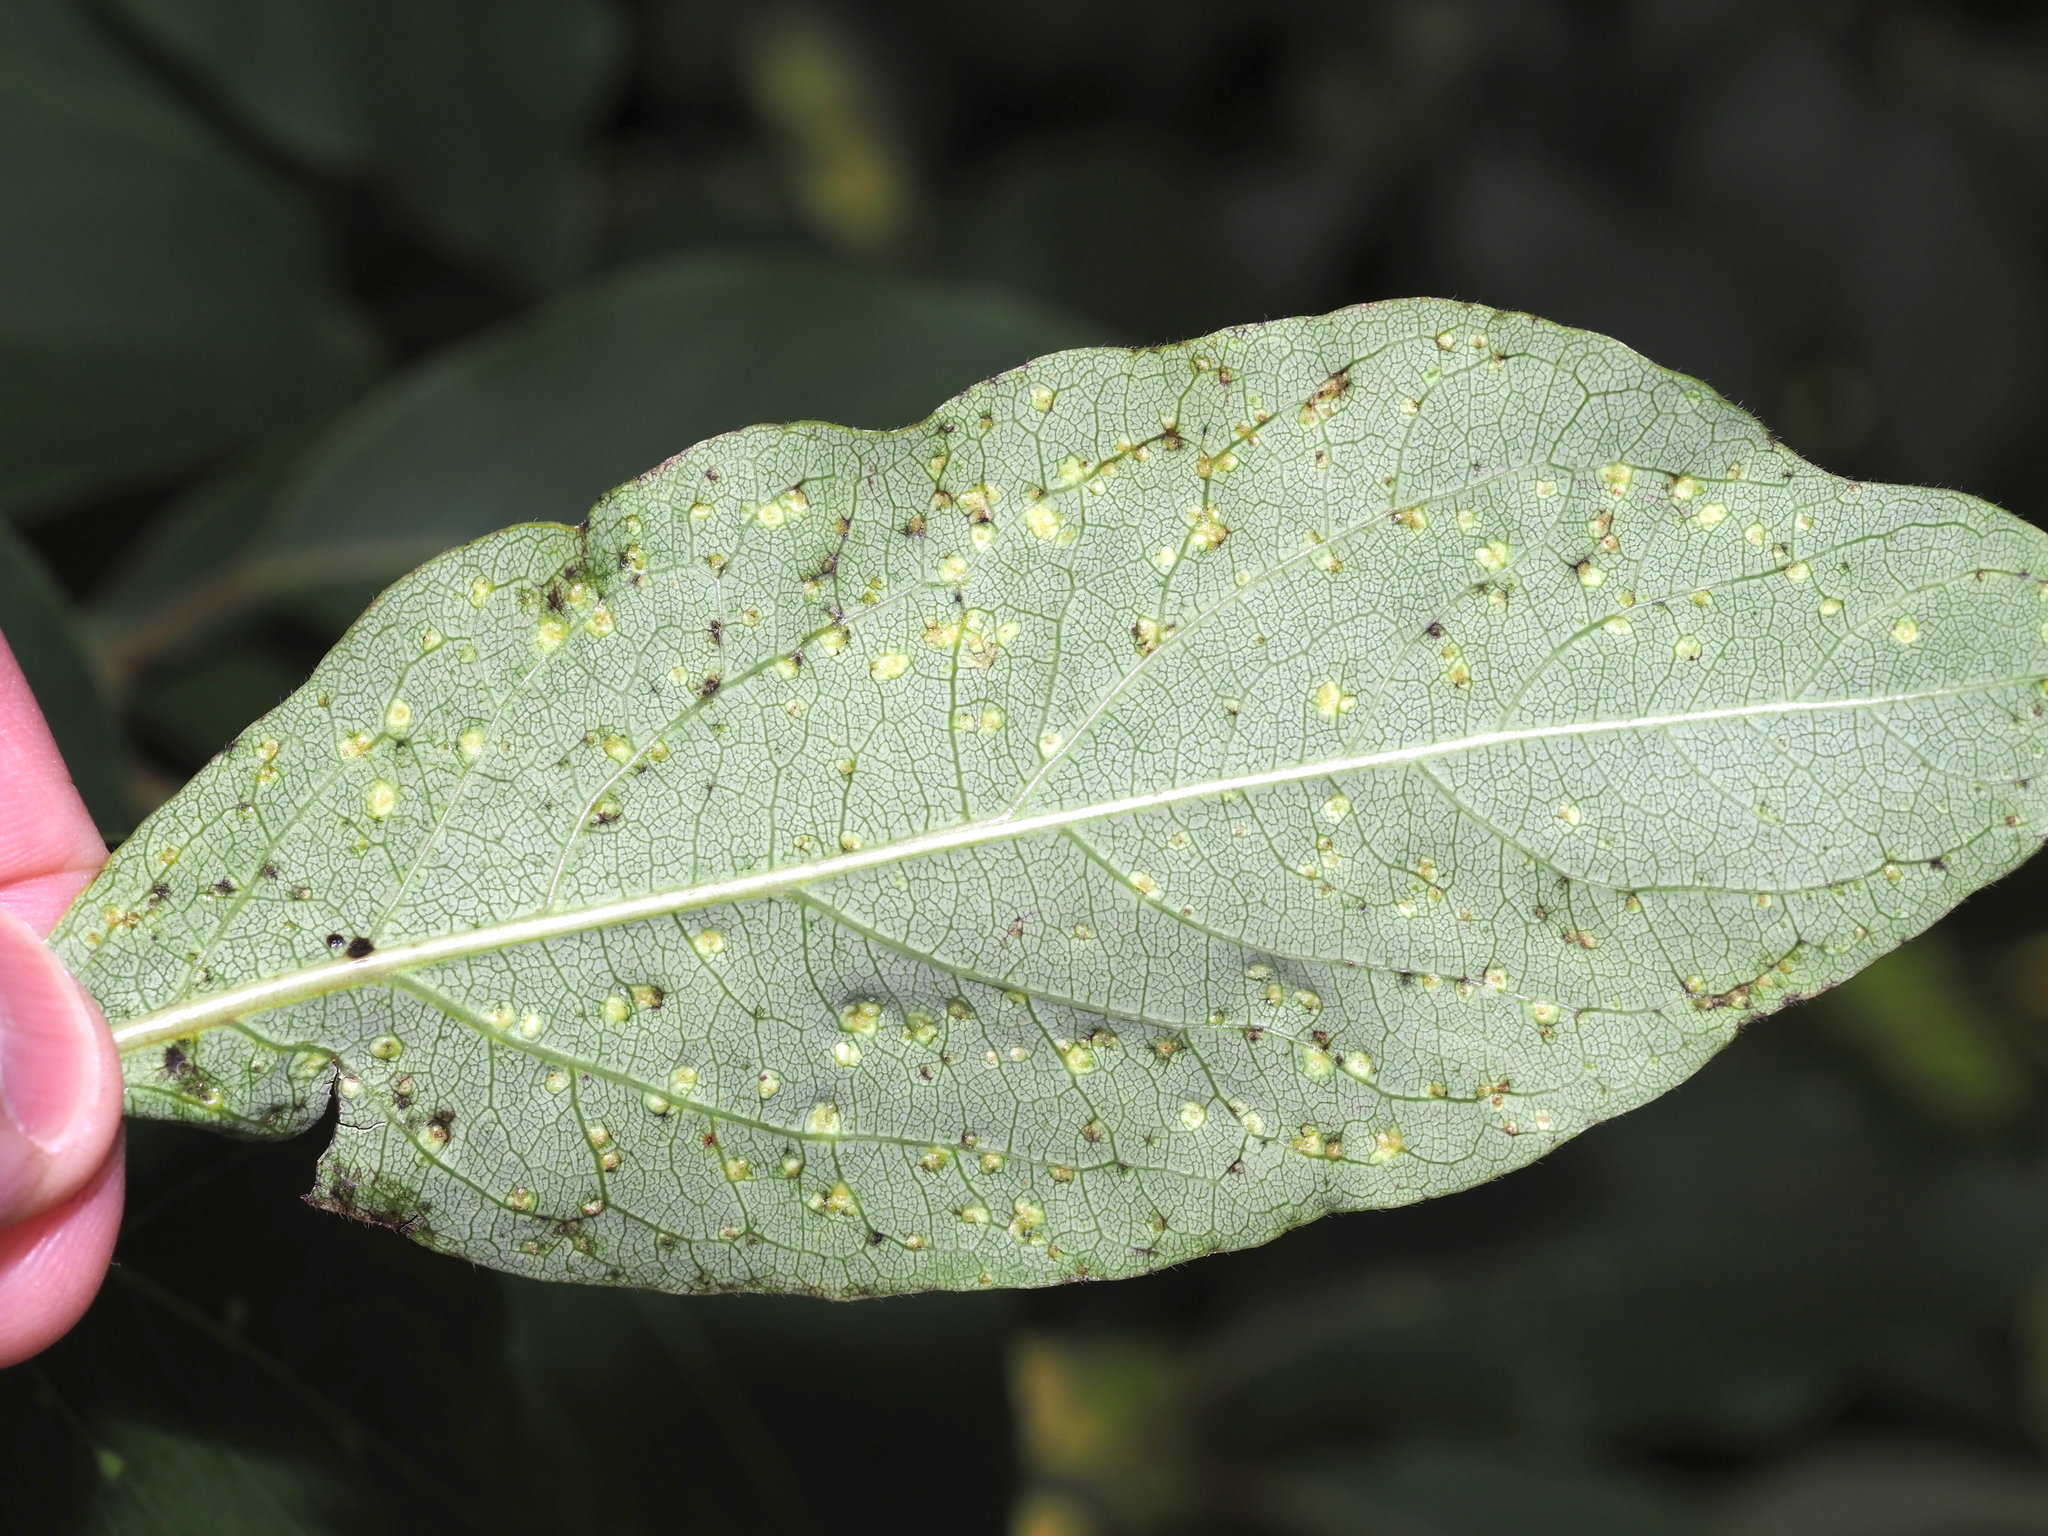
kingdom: Animalia
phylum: Arthropoda
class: Arachnida
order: Trombidiformes
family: Eriophyidae
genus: Aceria
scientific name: Aceria
